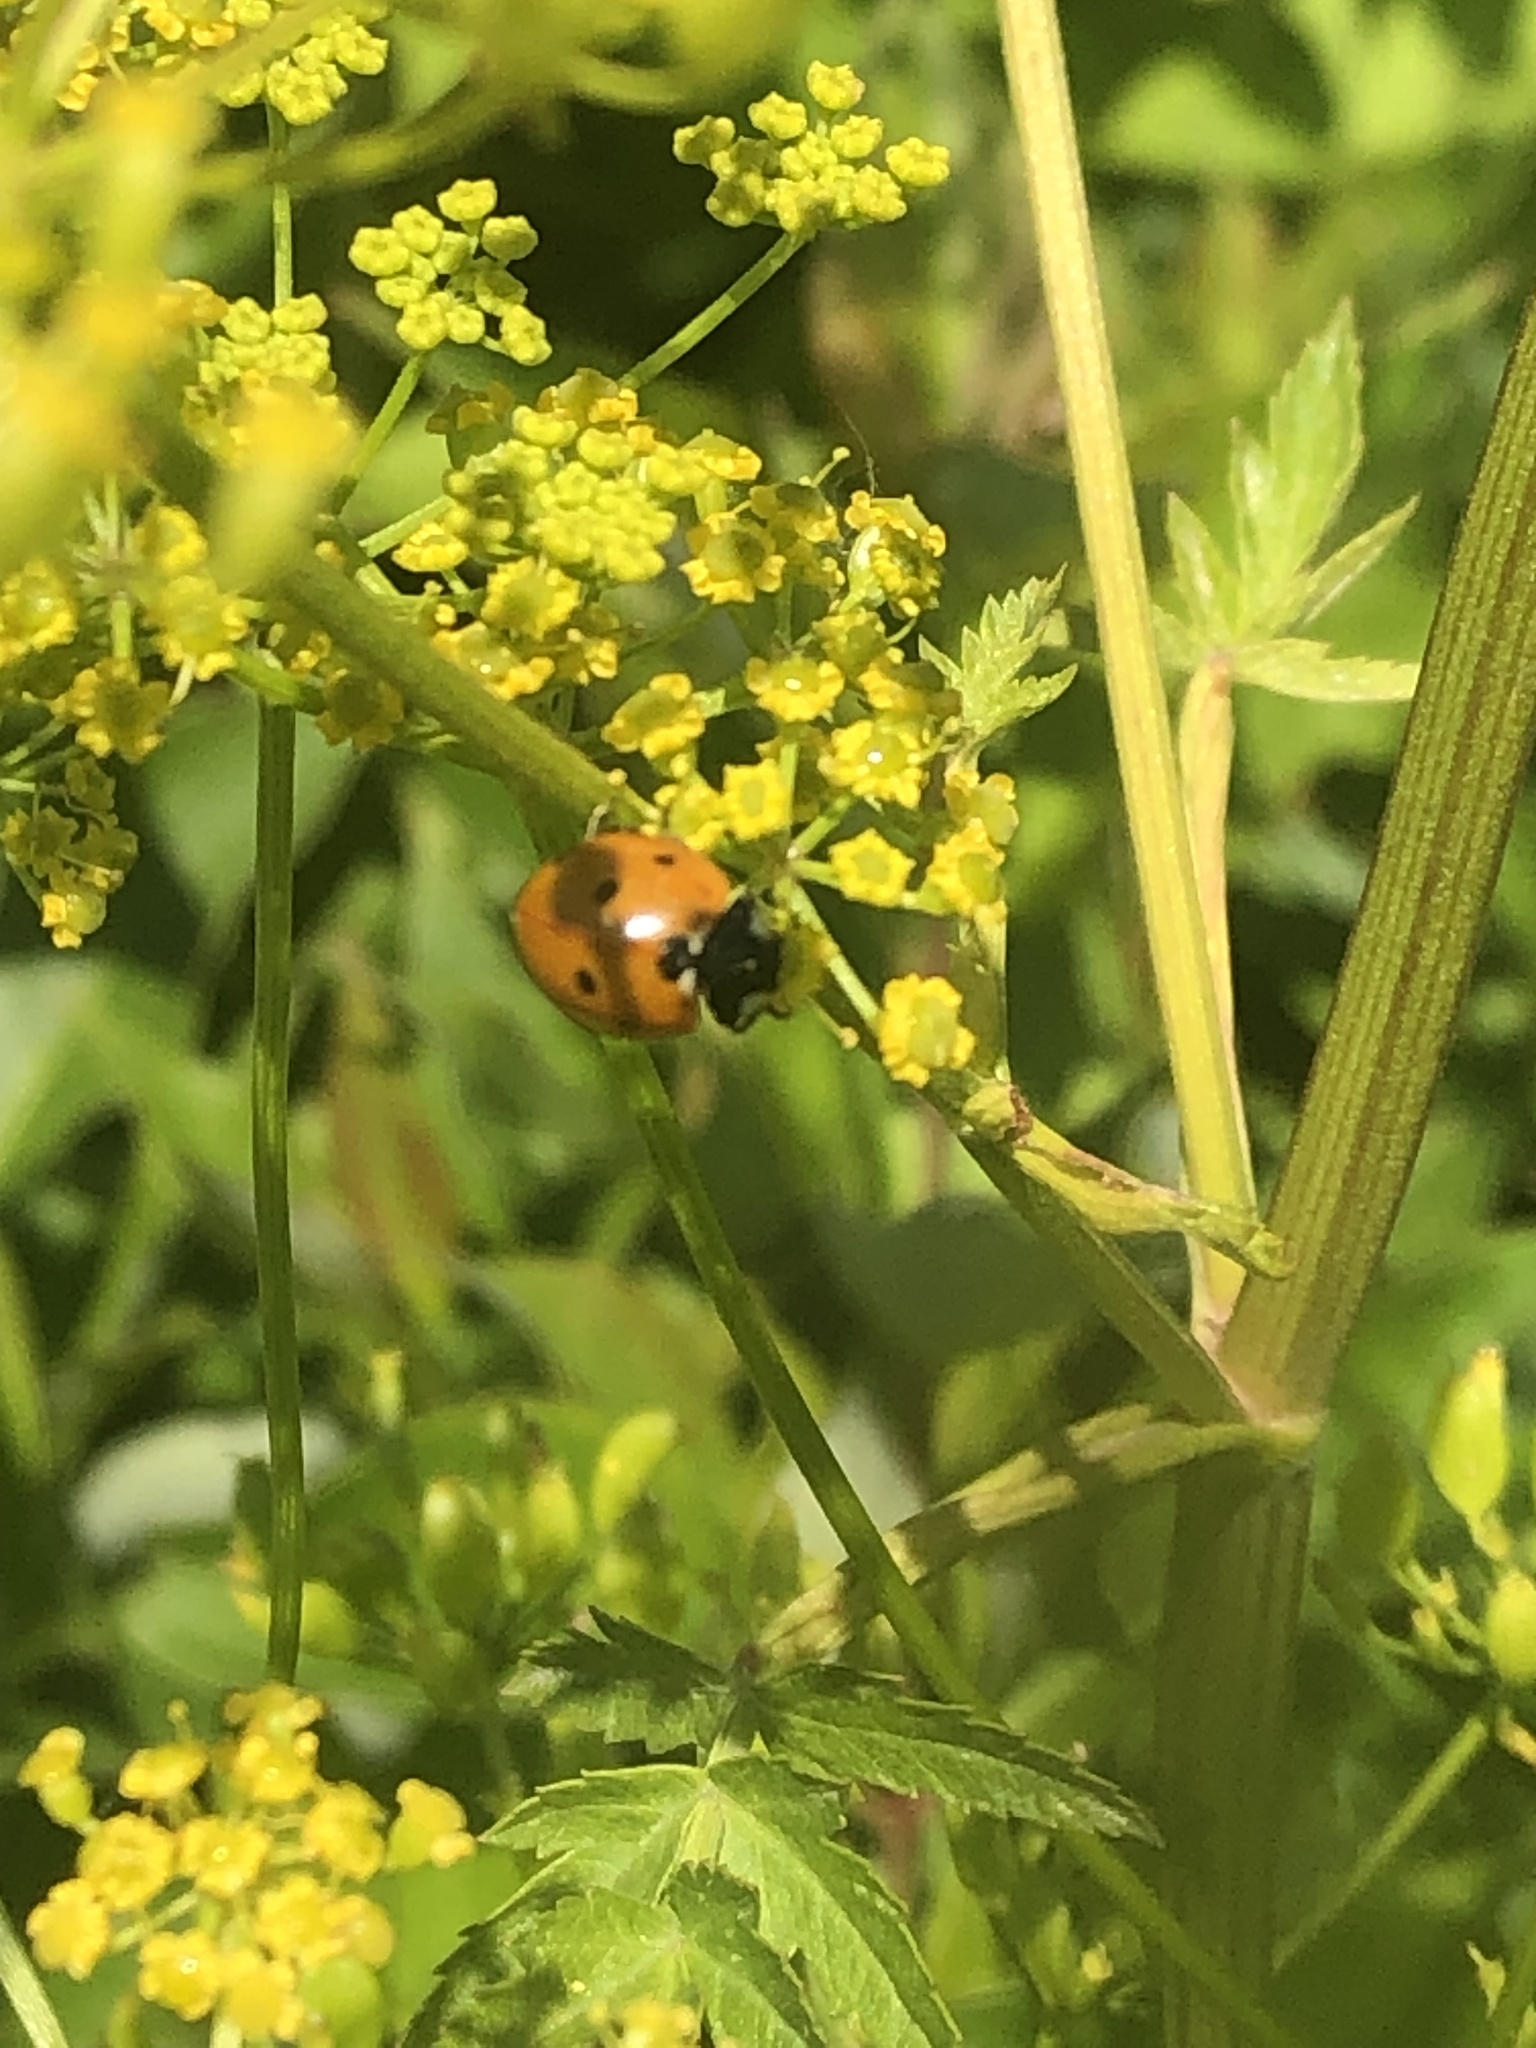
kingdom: Animalia
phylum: Arthropoda
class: Insecta
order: Coleoptera
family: Coccinellidae
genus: Coccinella
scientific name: Coccinella septempunctata
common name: Sevenspotted lady beetle
